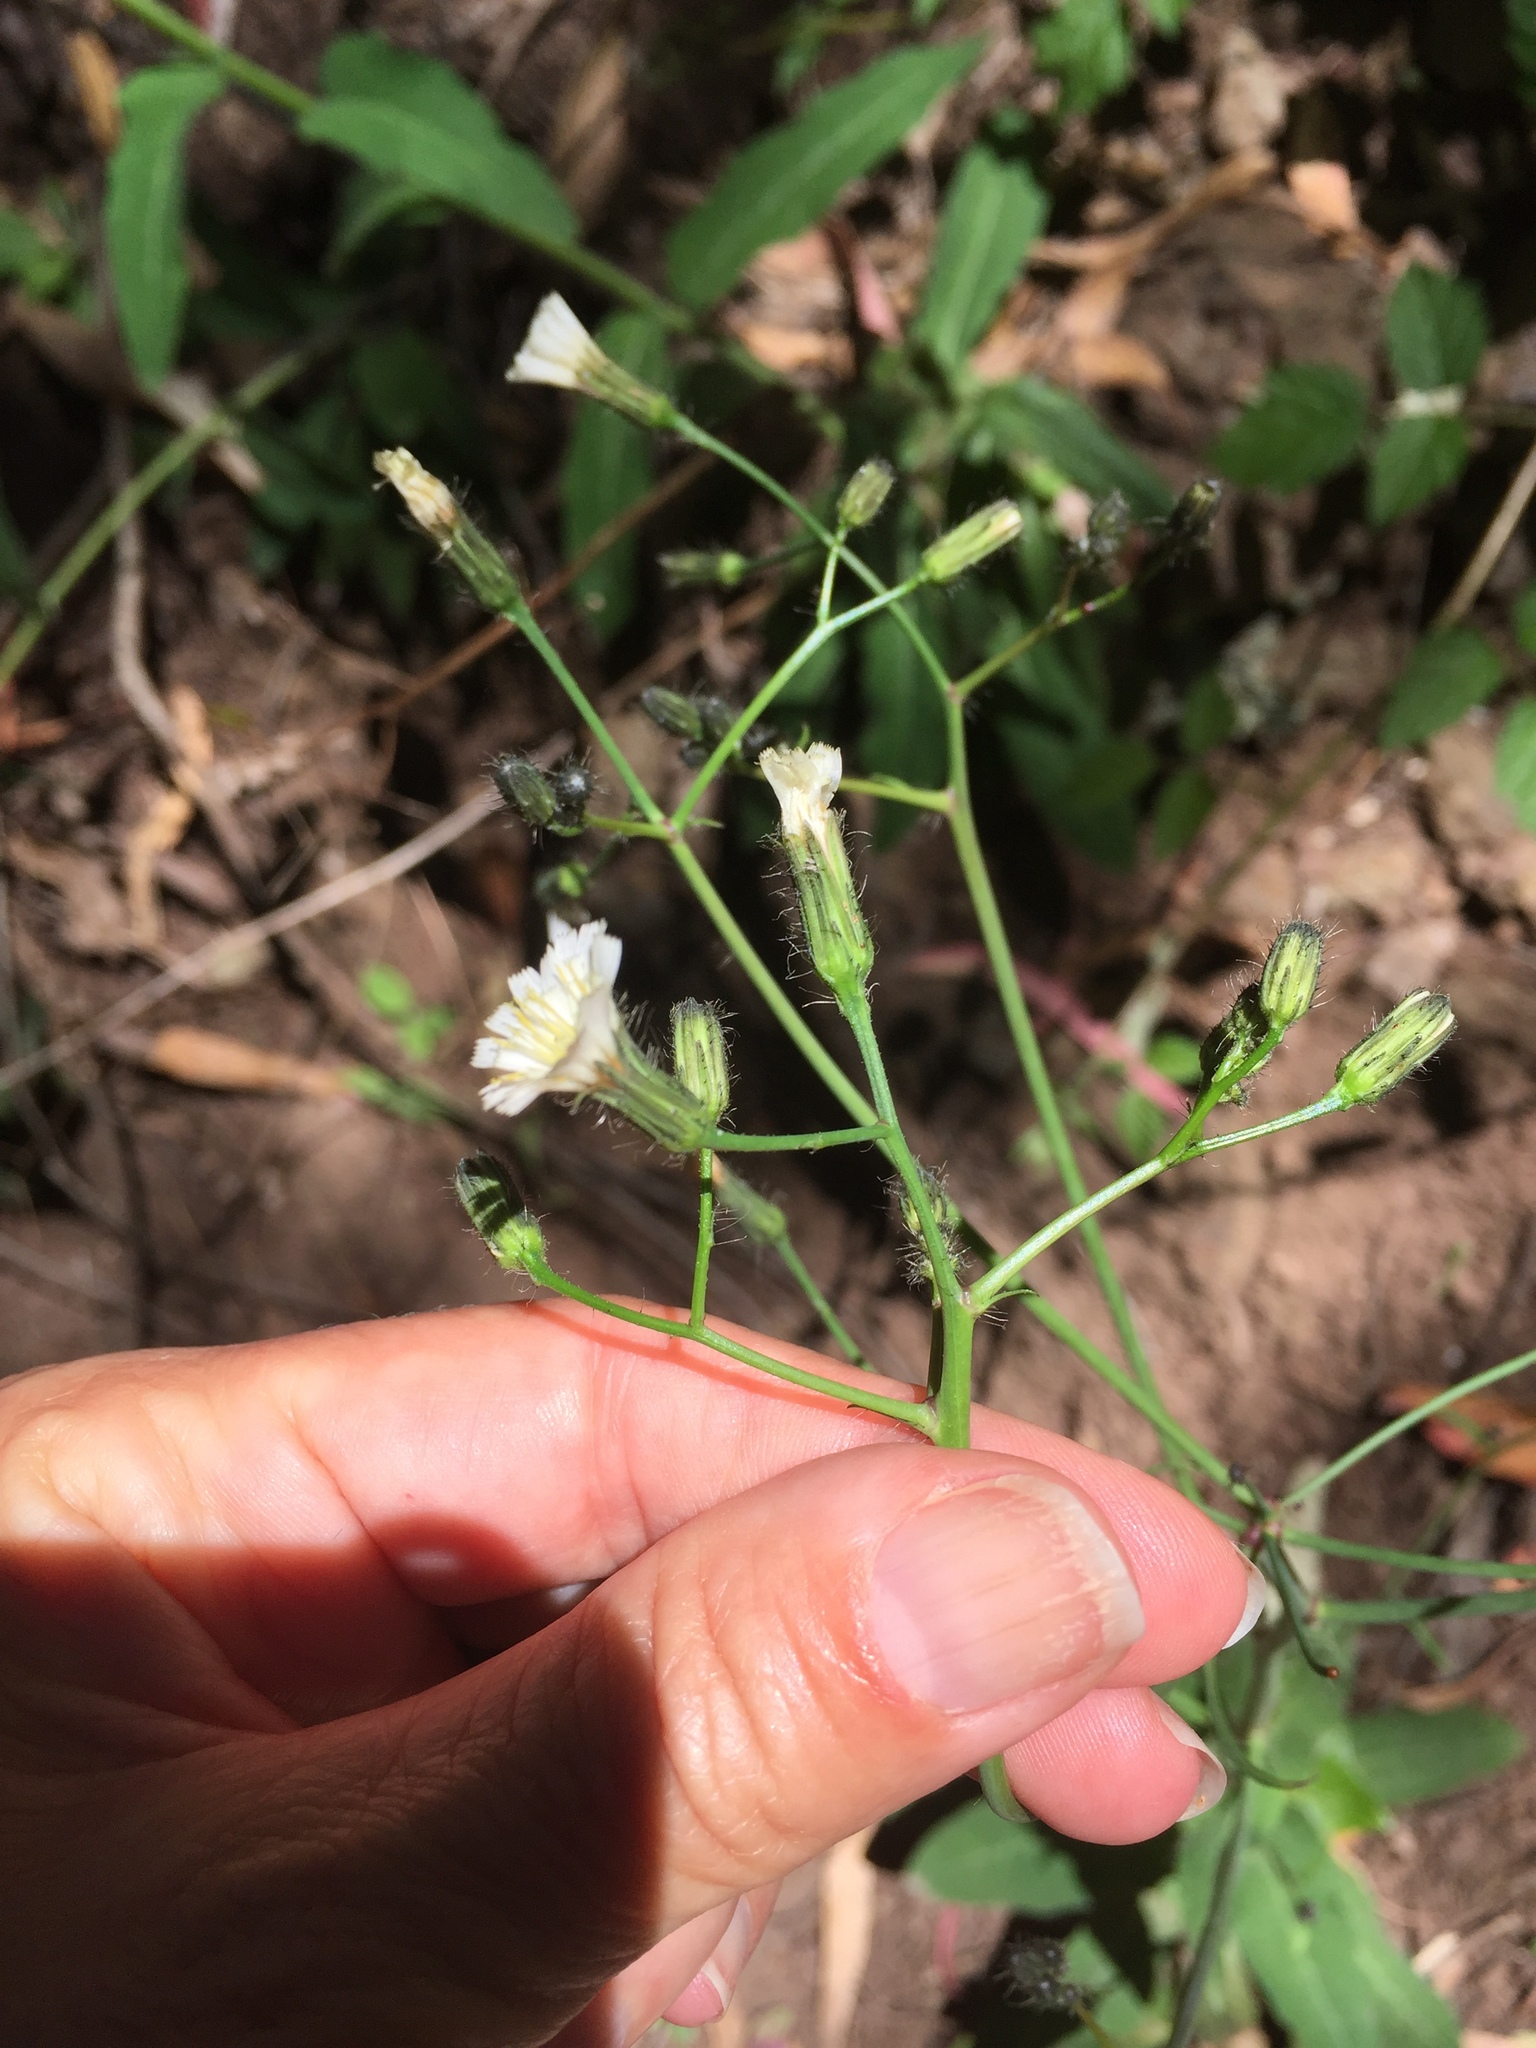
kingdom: Plantae
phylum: Tracheophyta
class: Magnoliopsida
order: Asterales
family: Asteraceae
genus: Hieracium
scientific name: Hieracium albiflorum
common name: White hawkweed
